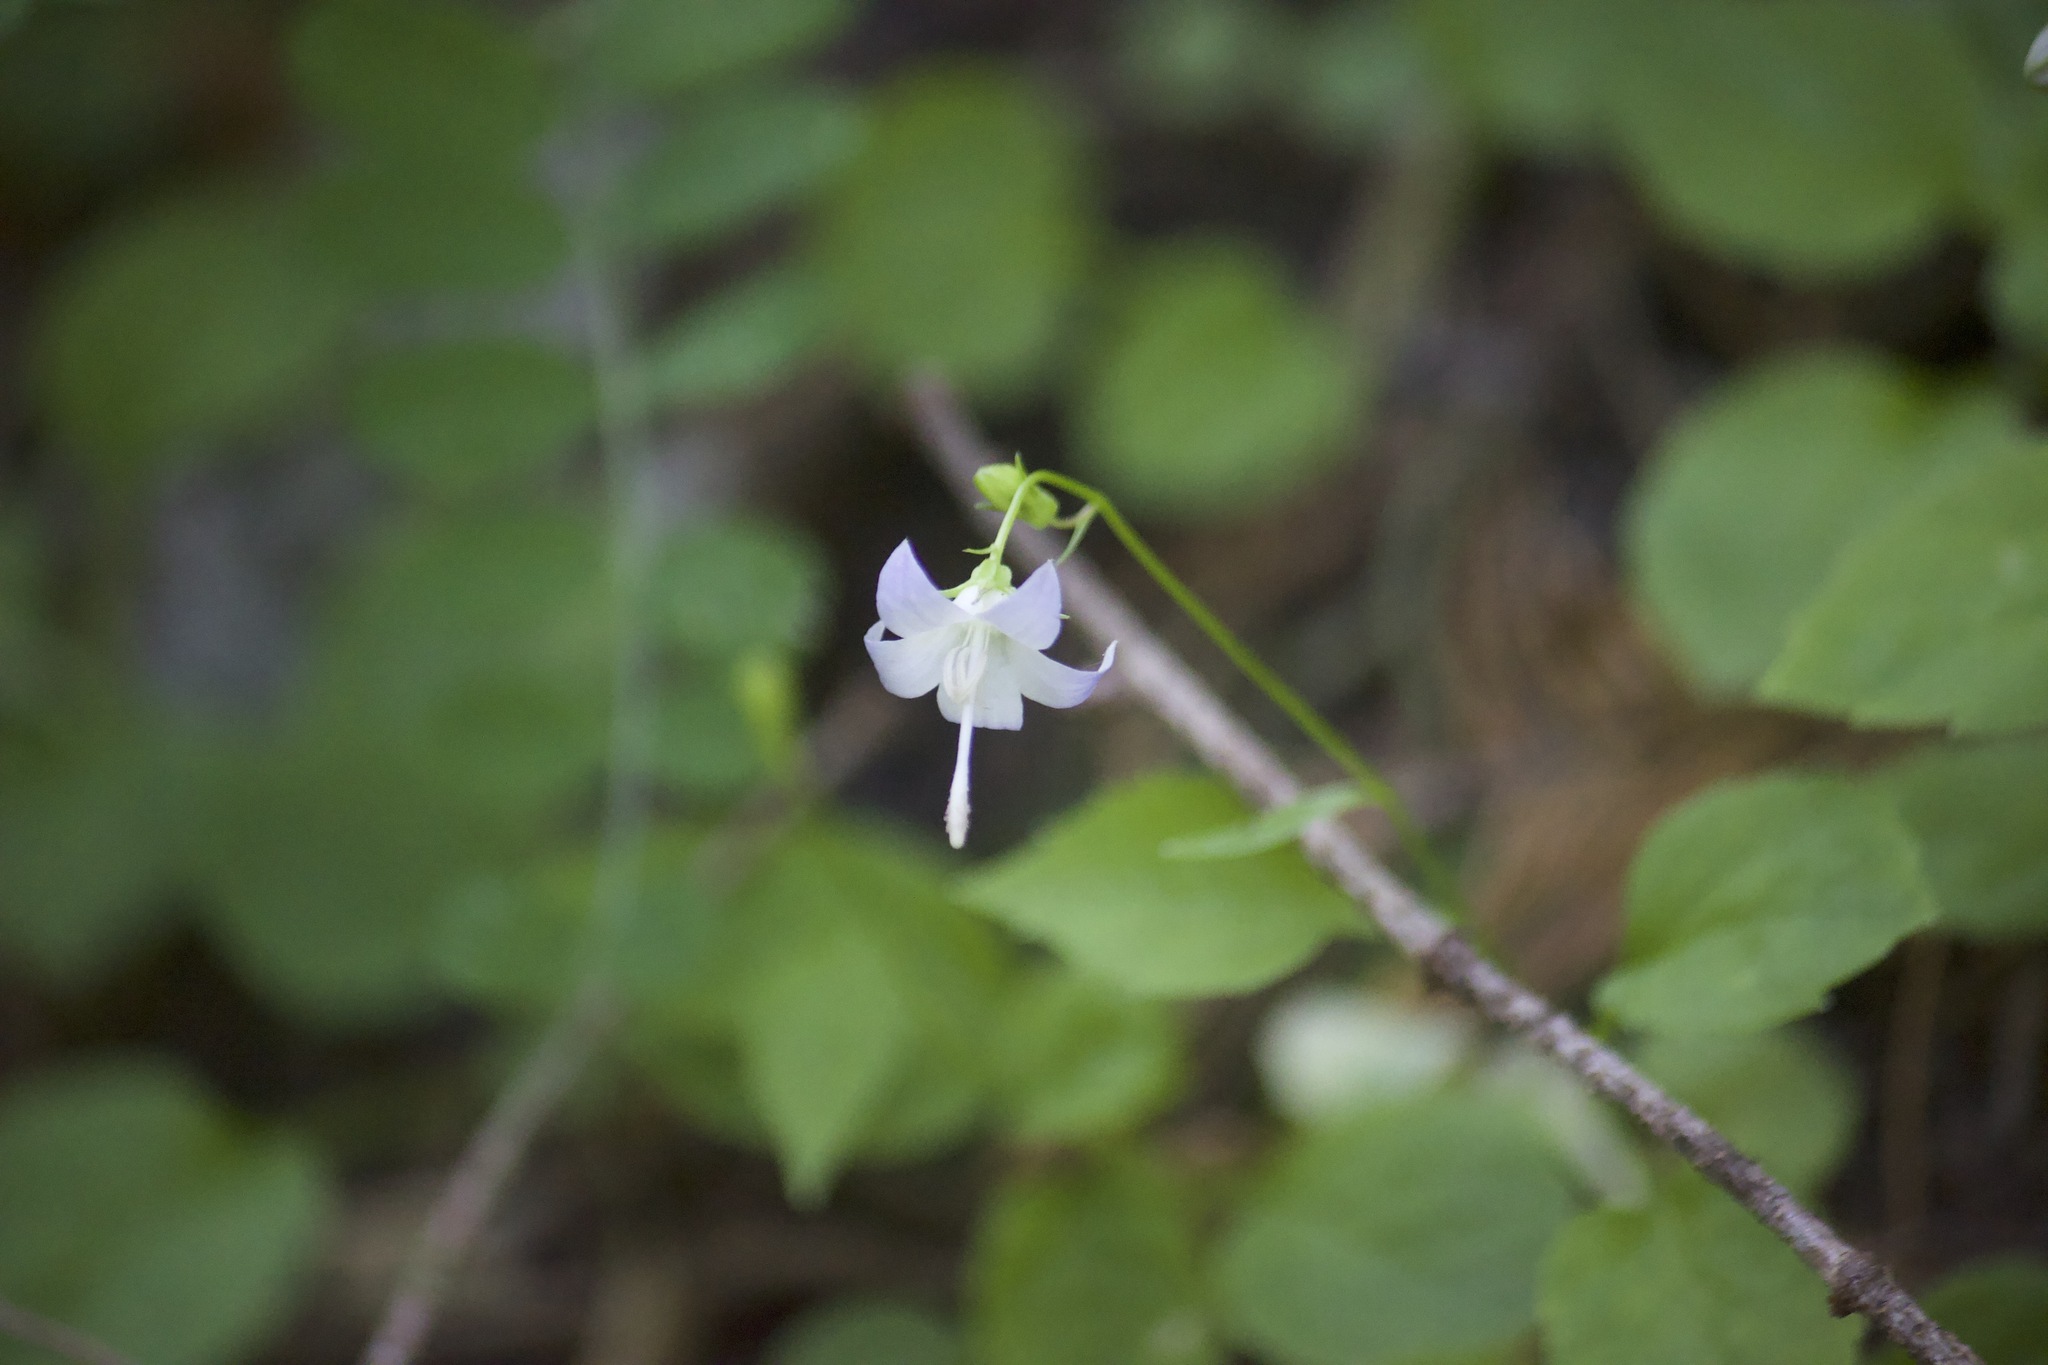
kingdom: Plantae
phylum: Tracheophyta
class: Magnoliopsida
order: Asterales
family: Campanulaceae
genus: Campanula
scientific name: Campanula scouleri
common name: Scouler's harebell
